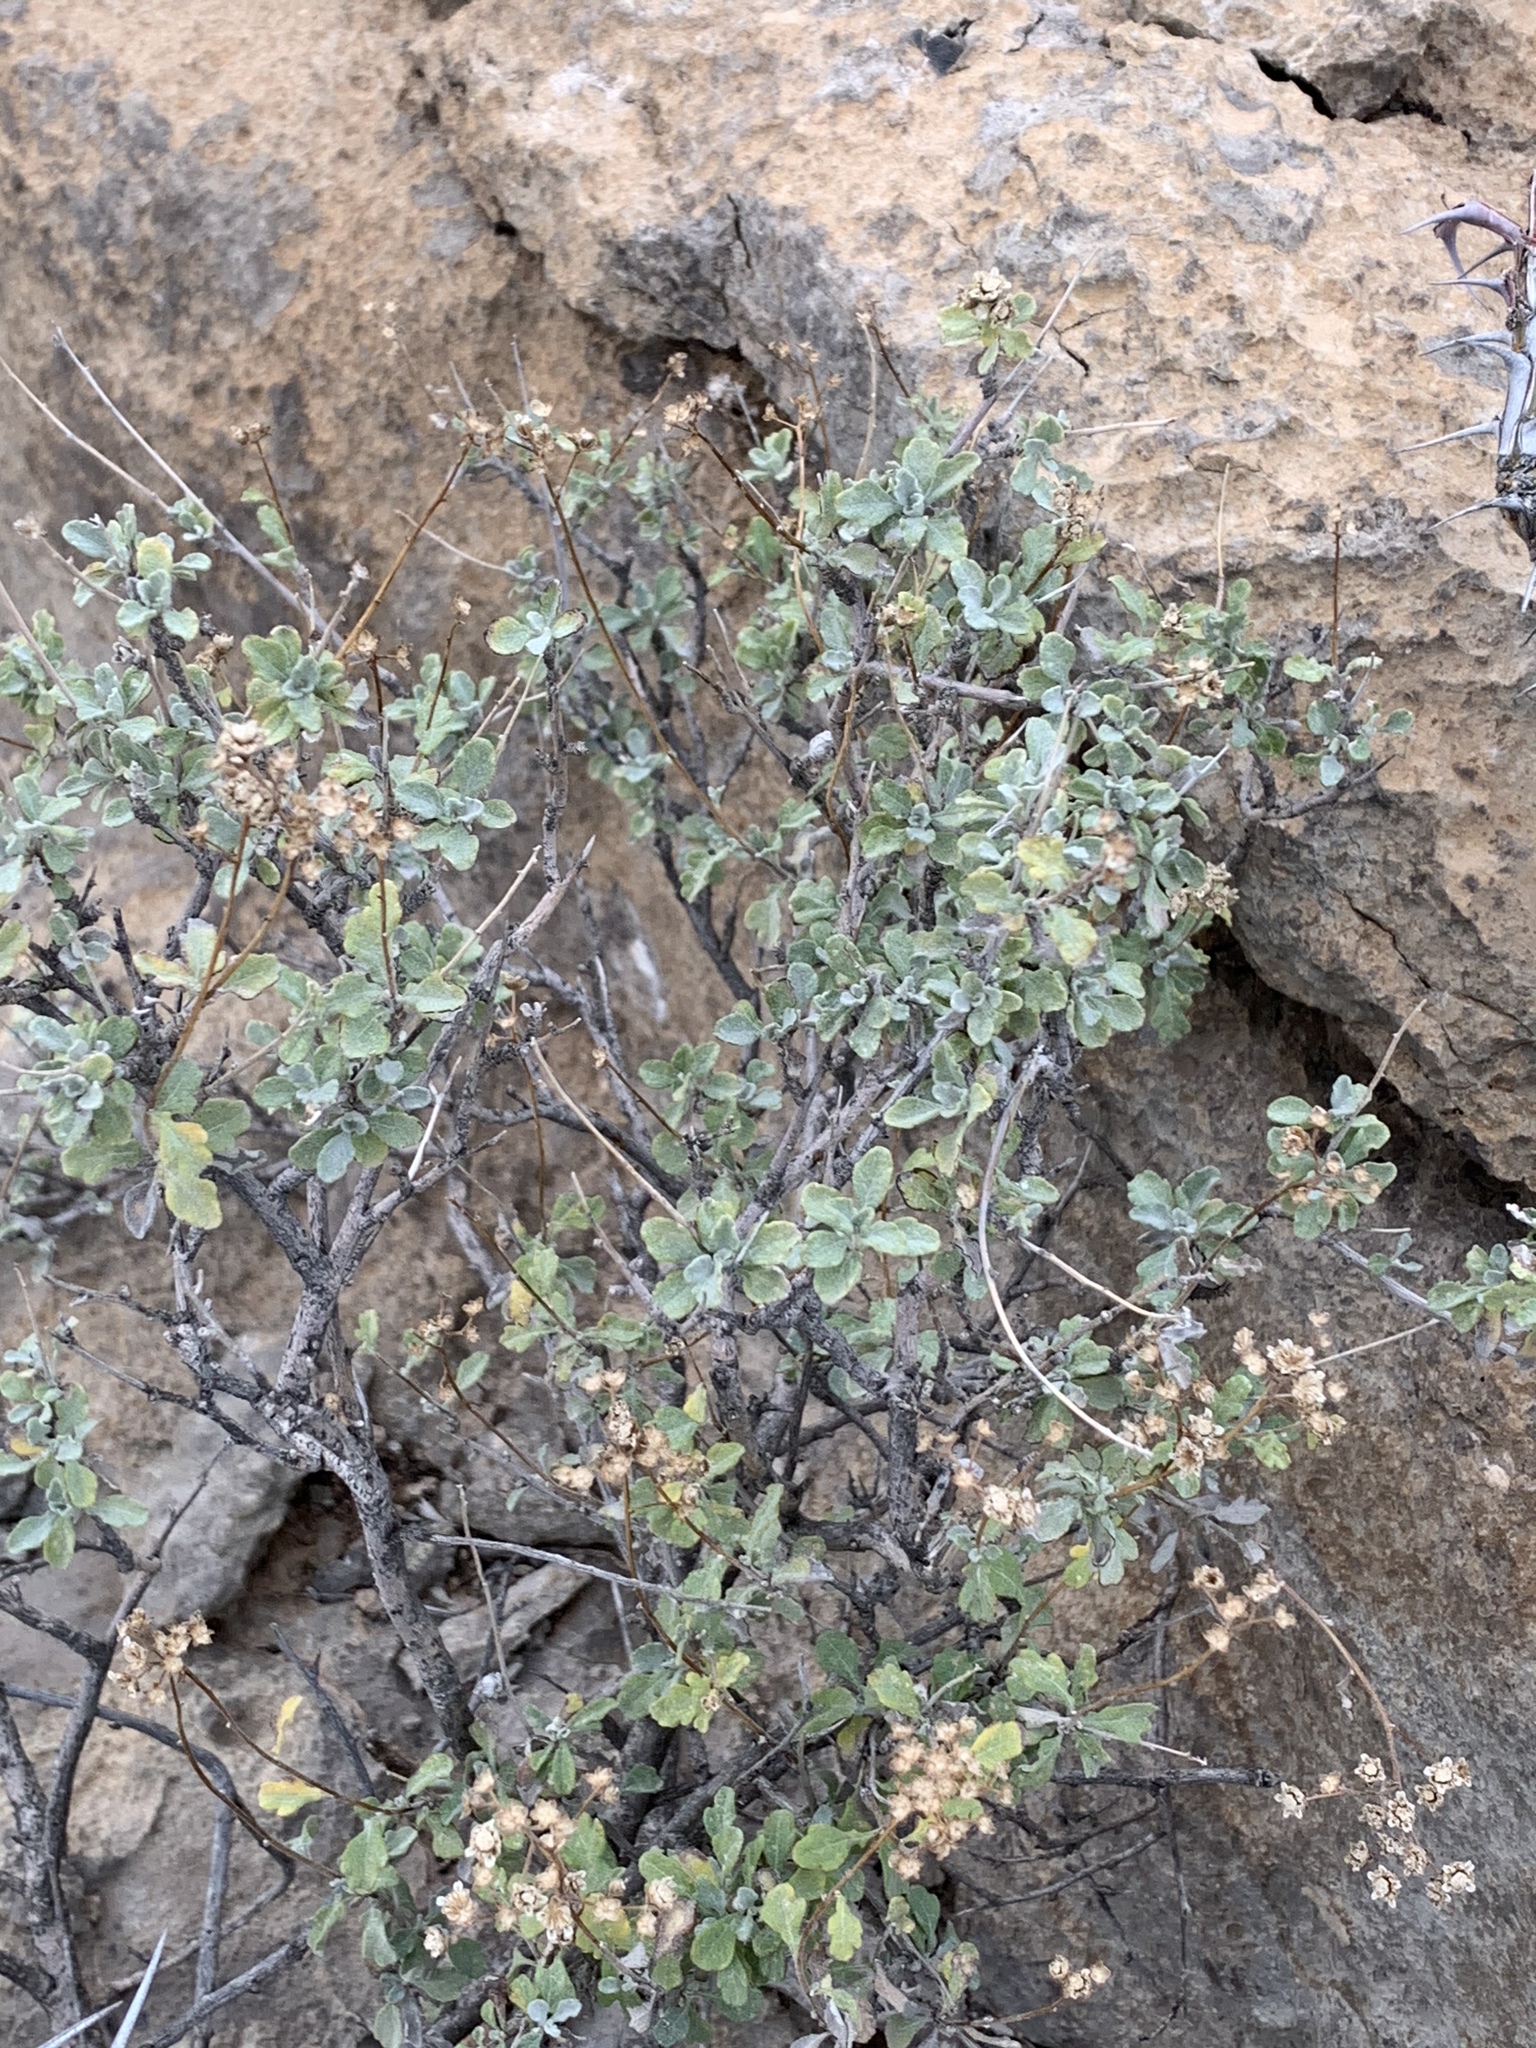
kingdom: Plantae
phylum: Tracheophyta
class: Magnoliopsida
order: Asterales
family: Asteraceae
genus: Parthenium
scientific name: Parthenium incanum
